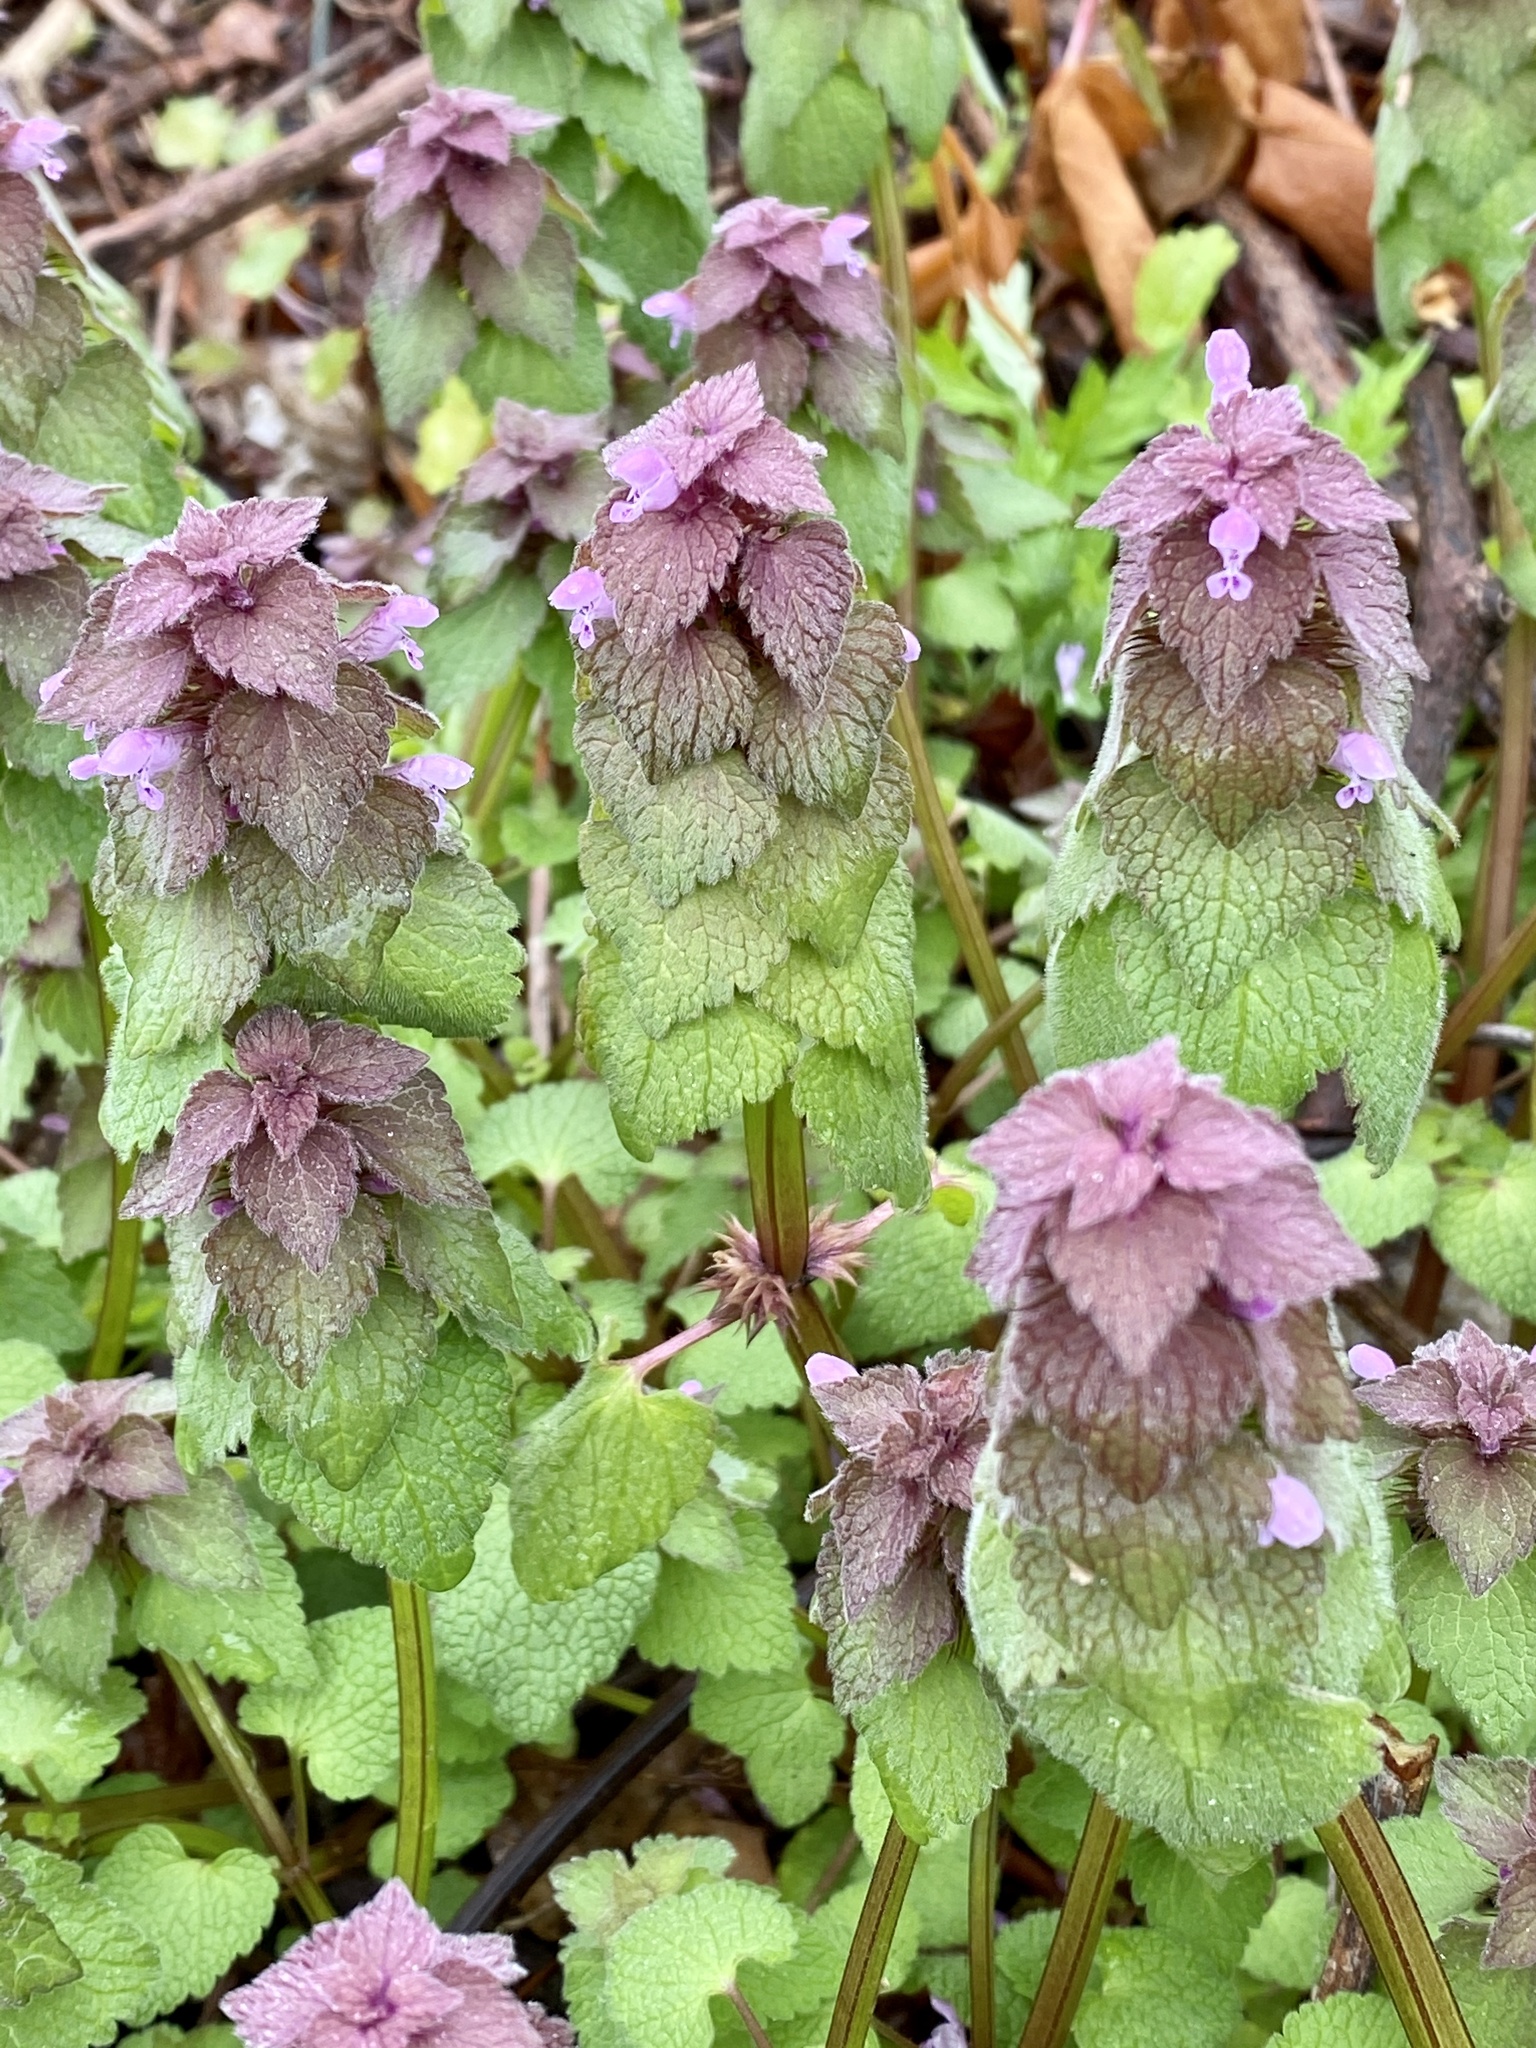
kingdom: Plantae
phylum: Tracheophyta
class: Magnoliopsida
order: Lamiales
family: Lamiaceae
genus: Lamium
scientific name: Lamium purpureum
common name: Red dead-nettle
